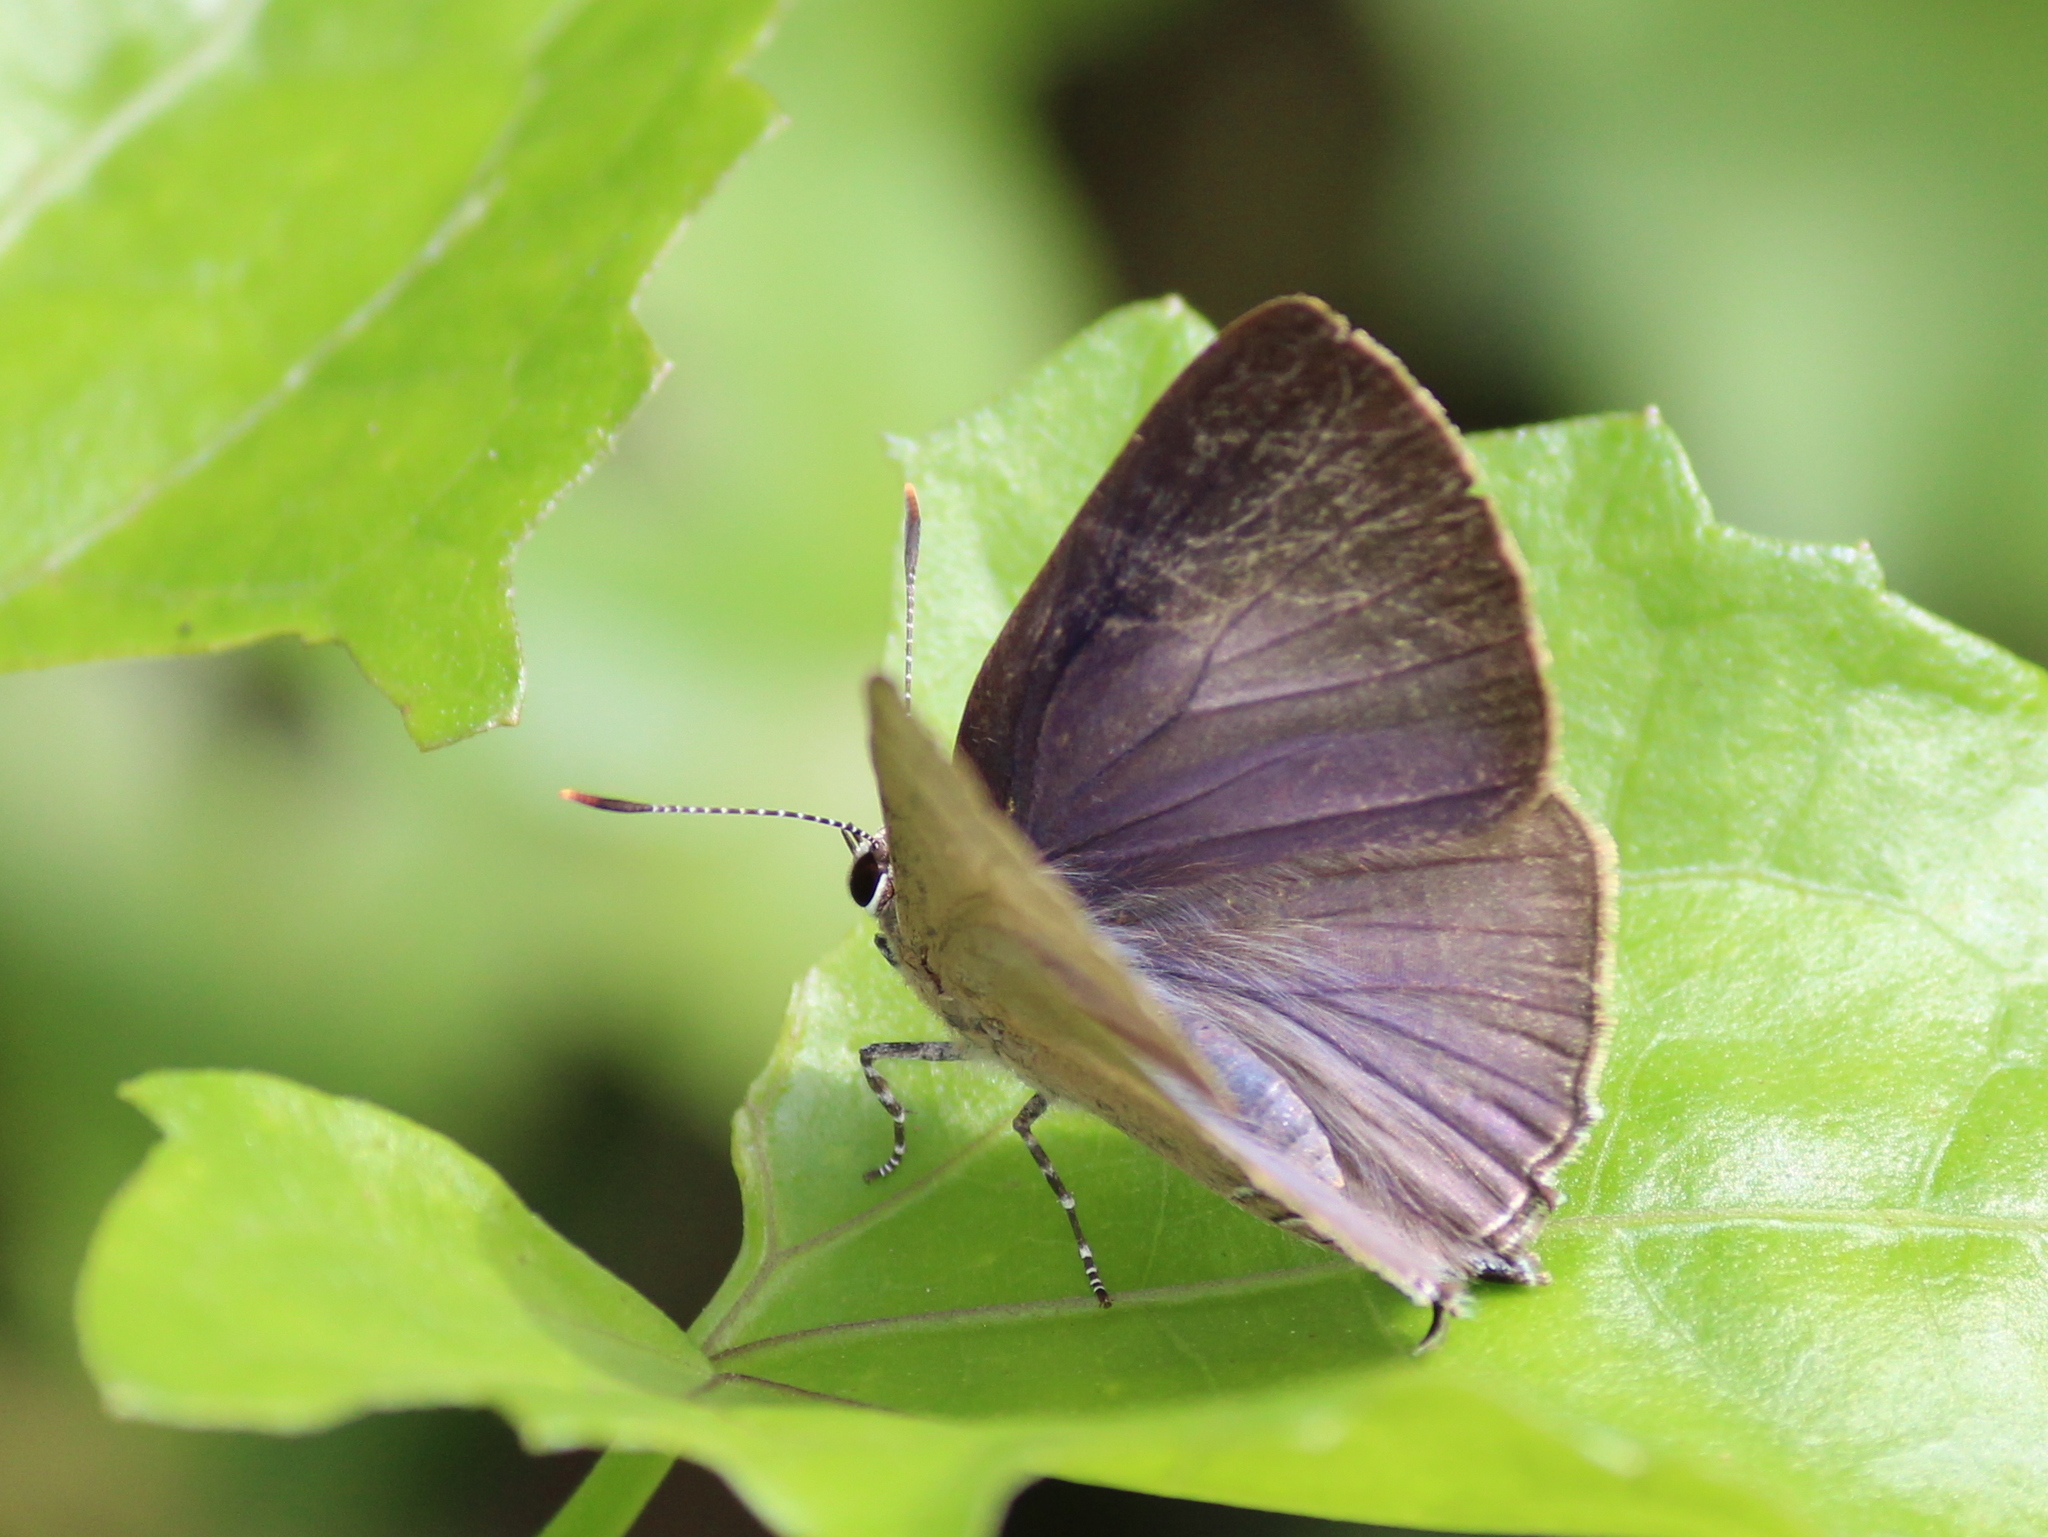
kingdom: Animalia
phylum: Arthropoda
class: Insecta
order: Lepidoptera
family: Lycaenidae
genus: Rapala
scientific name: Rapala manea
